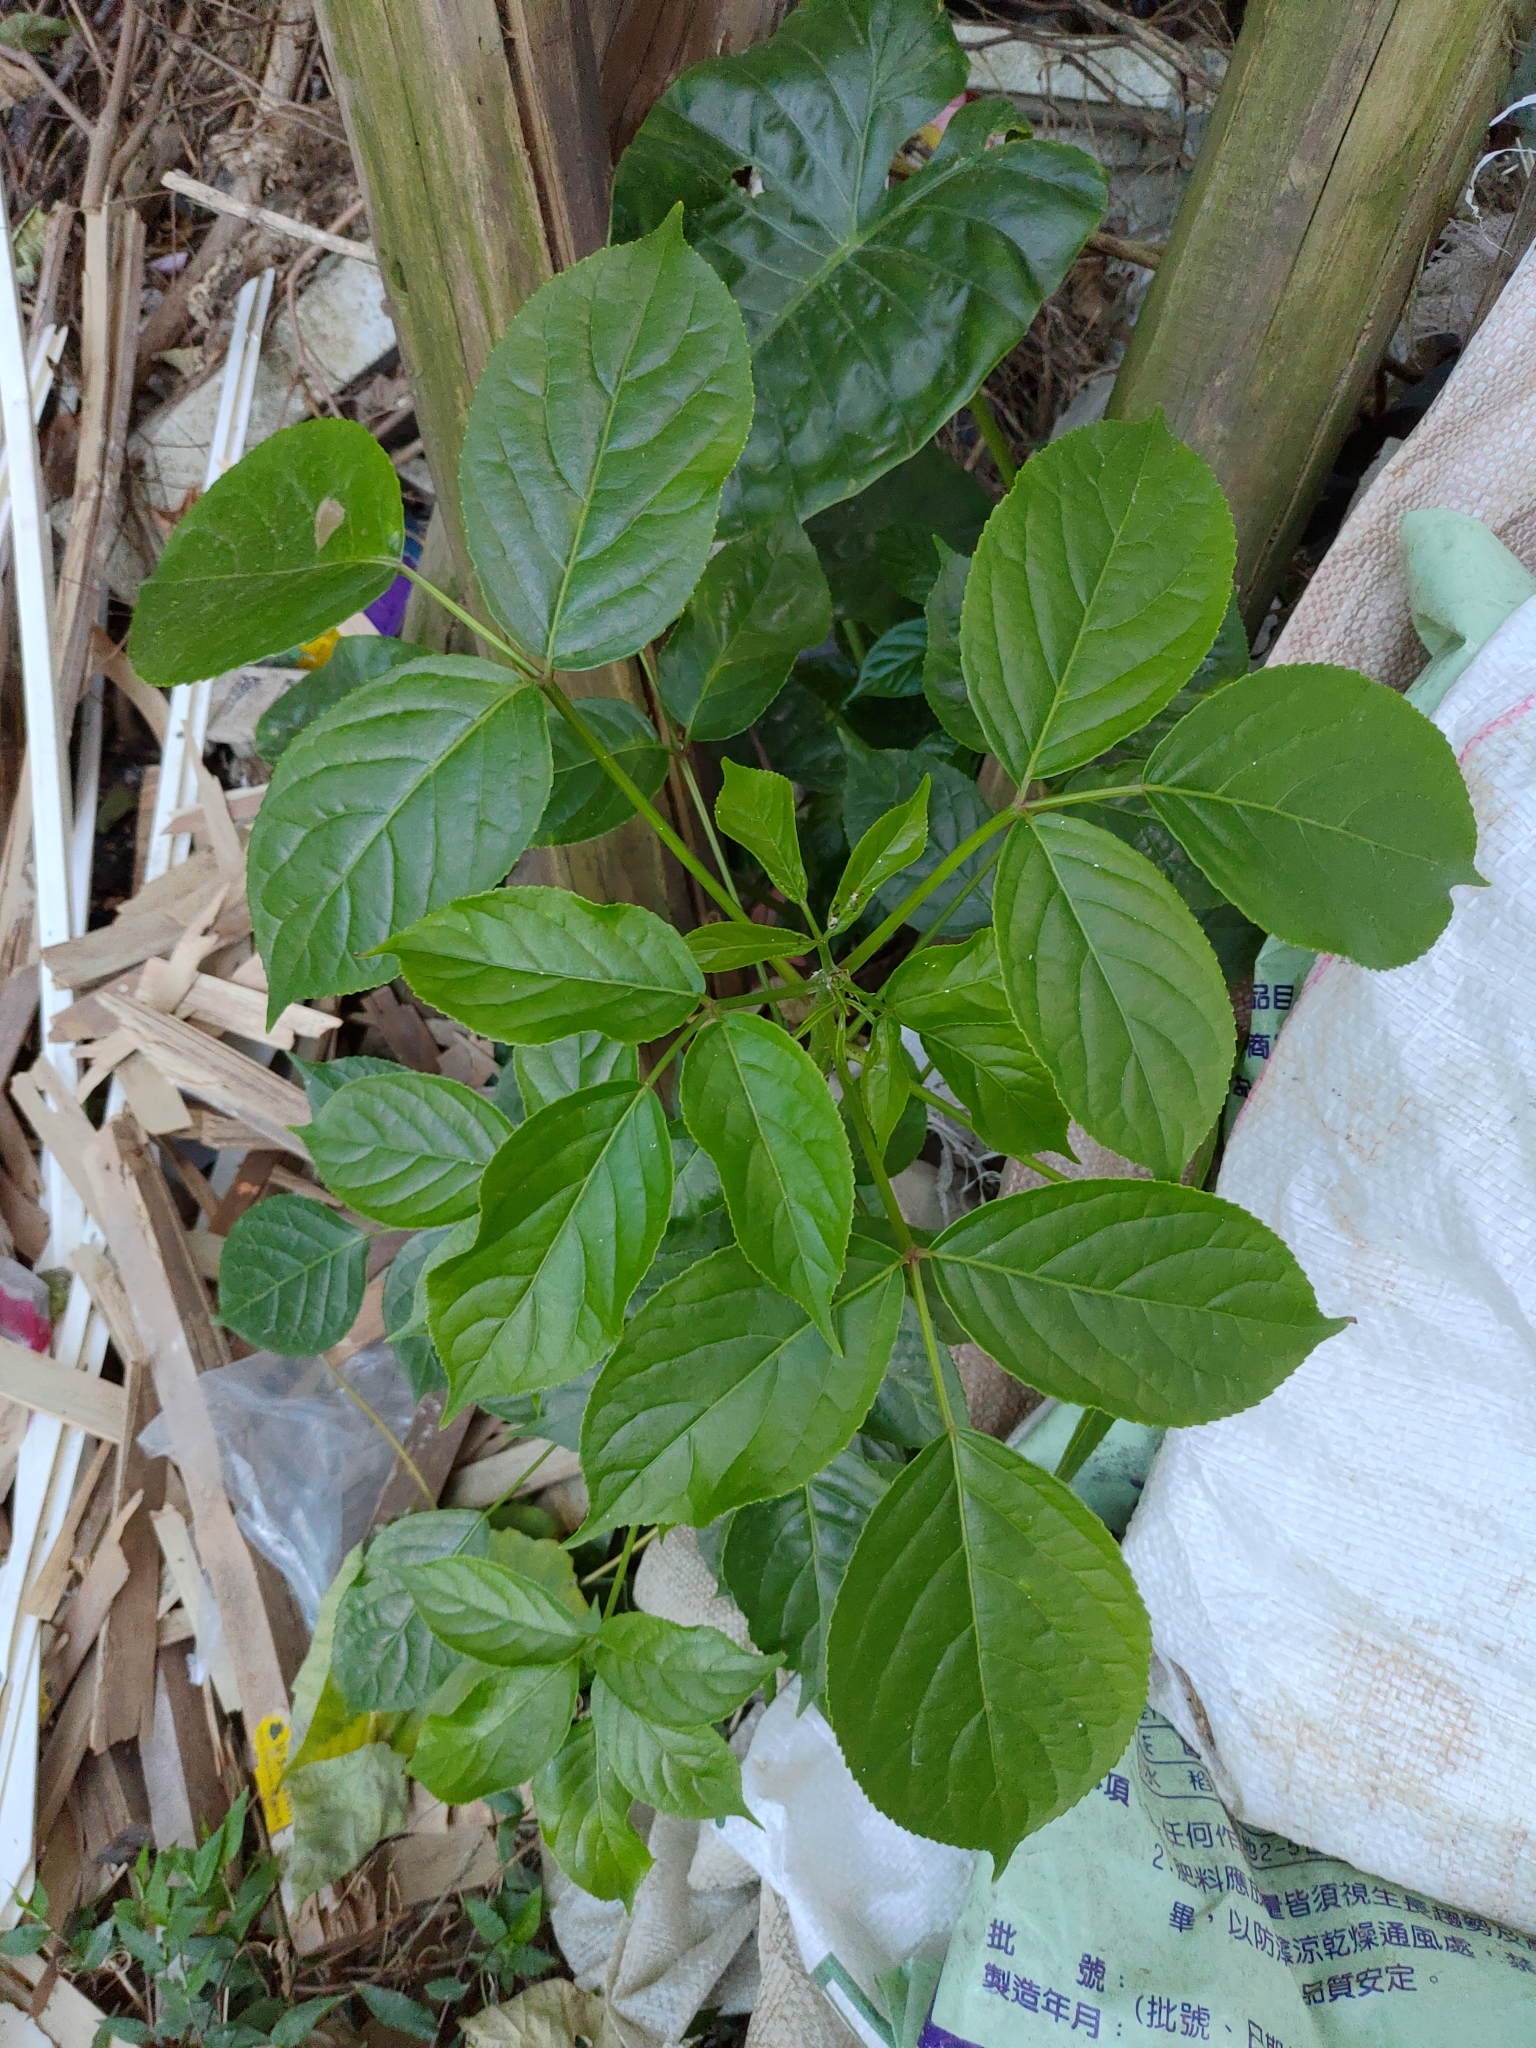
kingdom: Plantae
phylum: Tracheophyta
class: Magnoliopsida
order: Malpighiales
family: Phyllanthaceae
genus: Bischofia
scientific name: Bischofia javanica
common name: Javanese bishopwood
